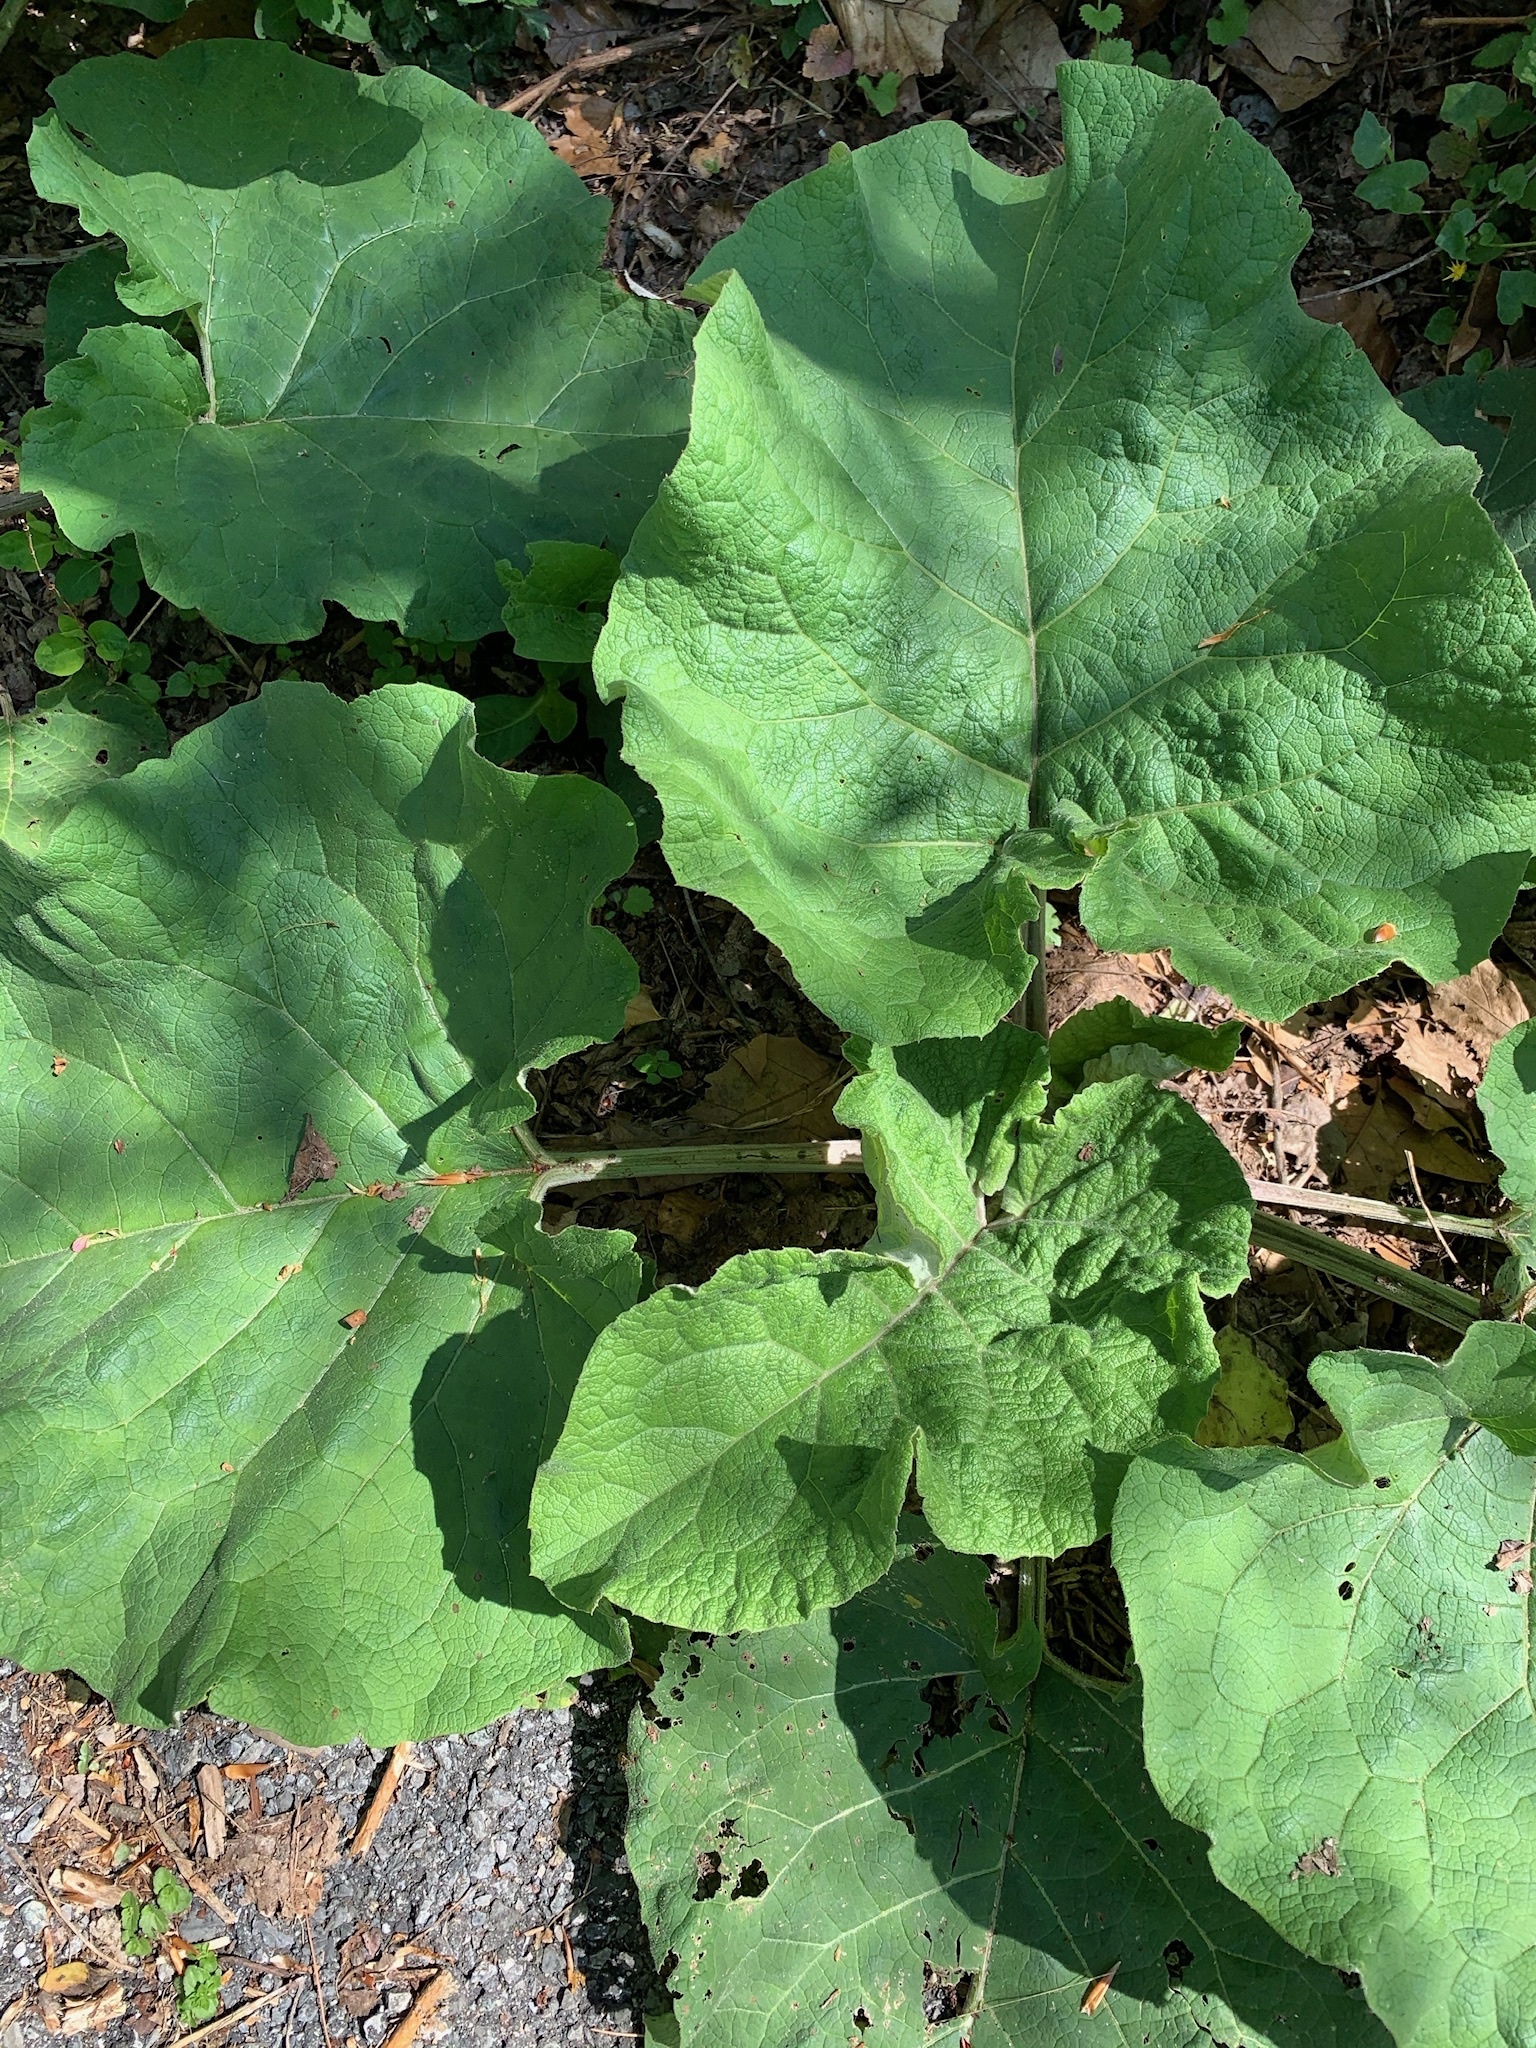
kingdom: Plantae
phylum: Tracheophyta
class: Magnoliopsida
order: Asterales
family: Asteraceae
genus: Arctium
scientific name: Arctium
